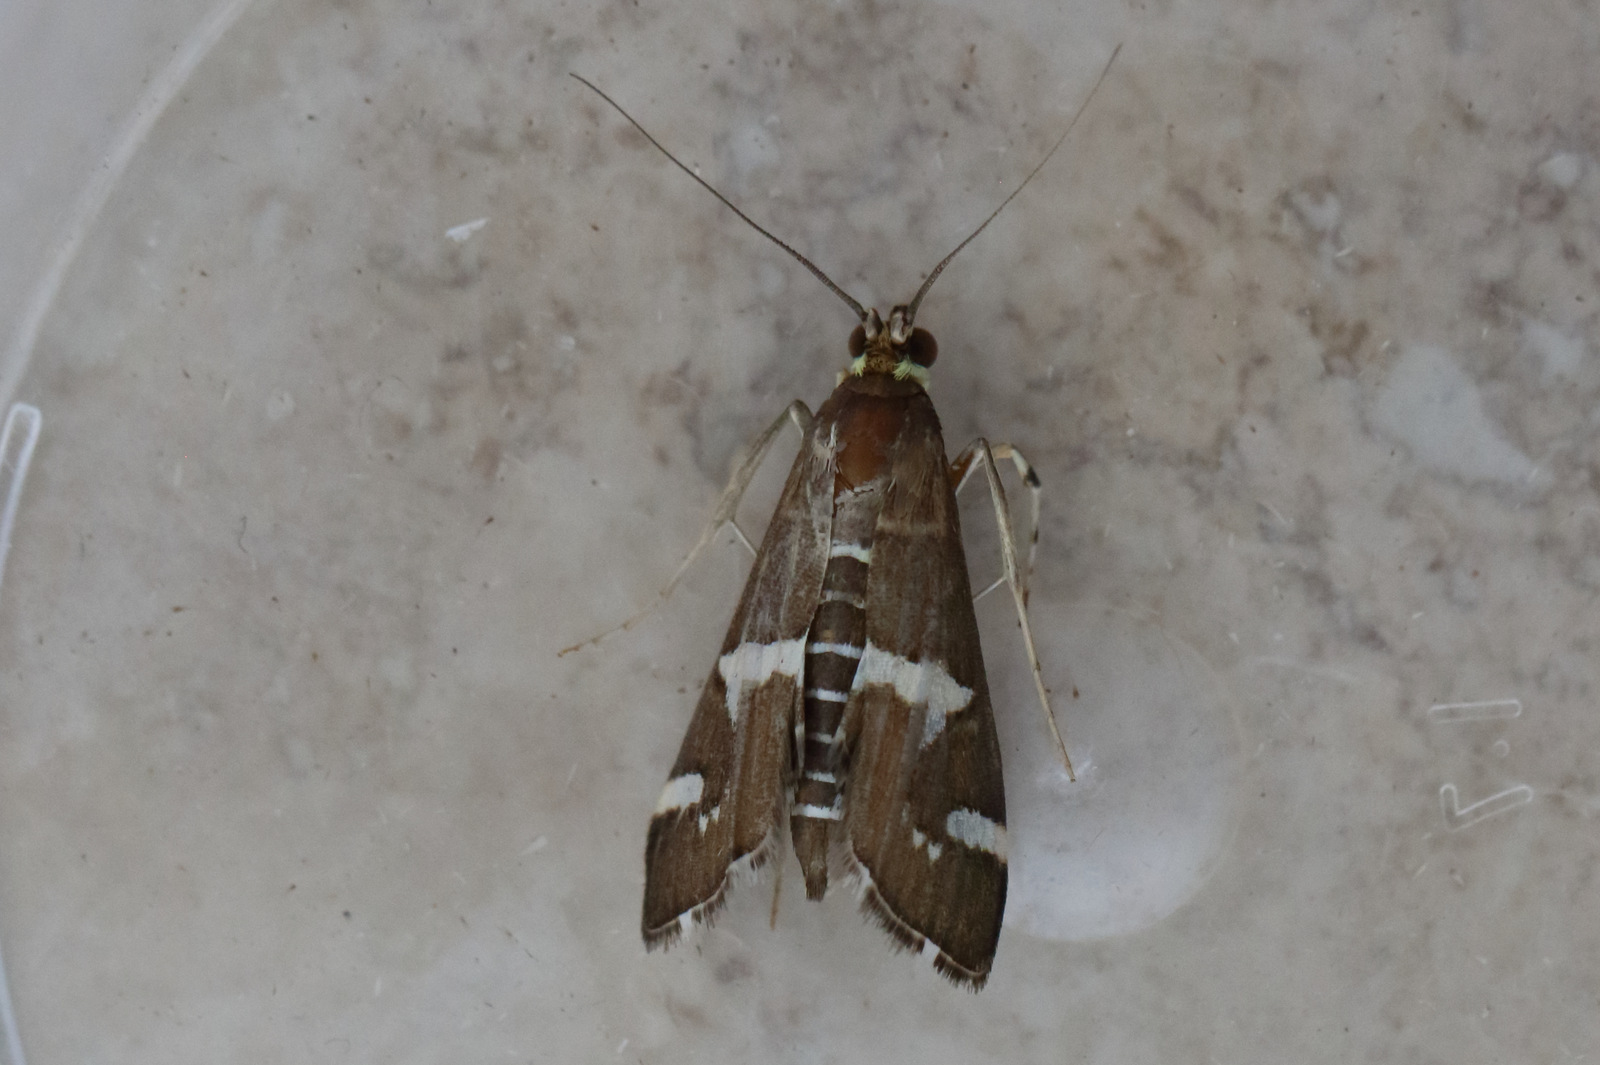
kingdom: Animalia
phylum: Arthropoda
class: Insecta
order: Lepidoptera
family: Crambidae
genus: Spoladea
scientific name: Spoladea recurvalis
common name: Beet webworm moth
